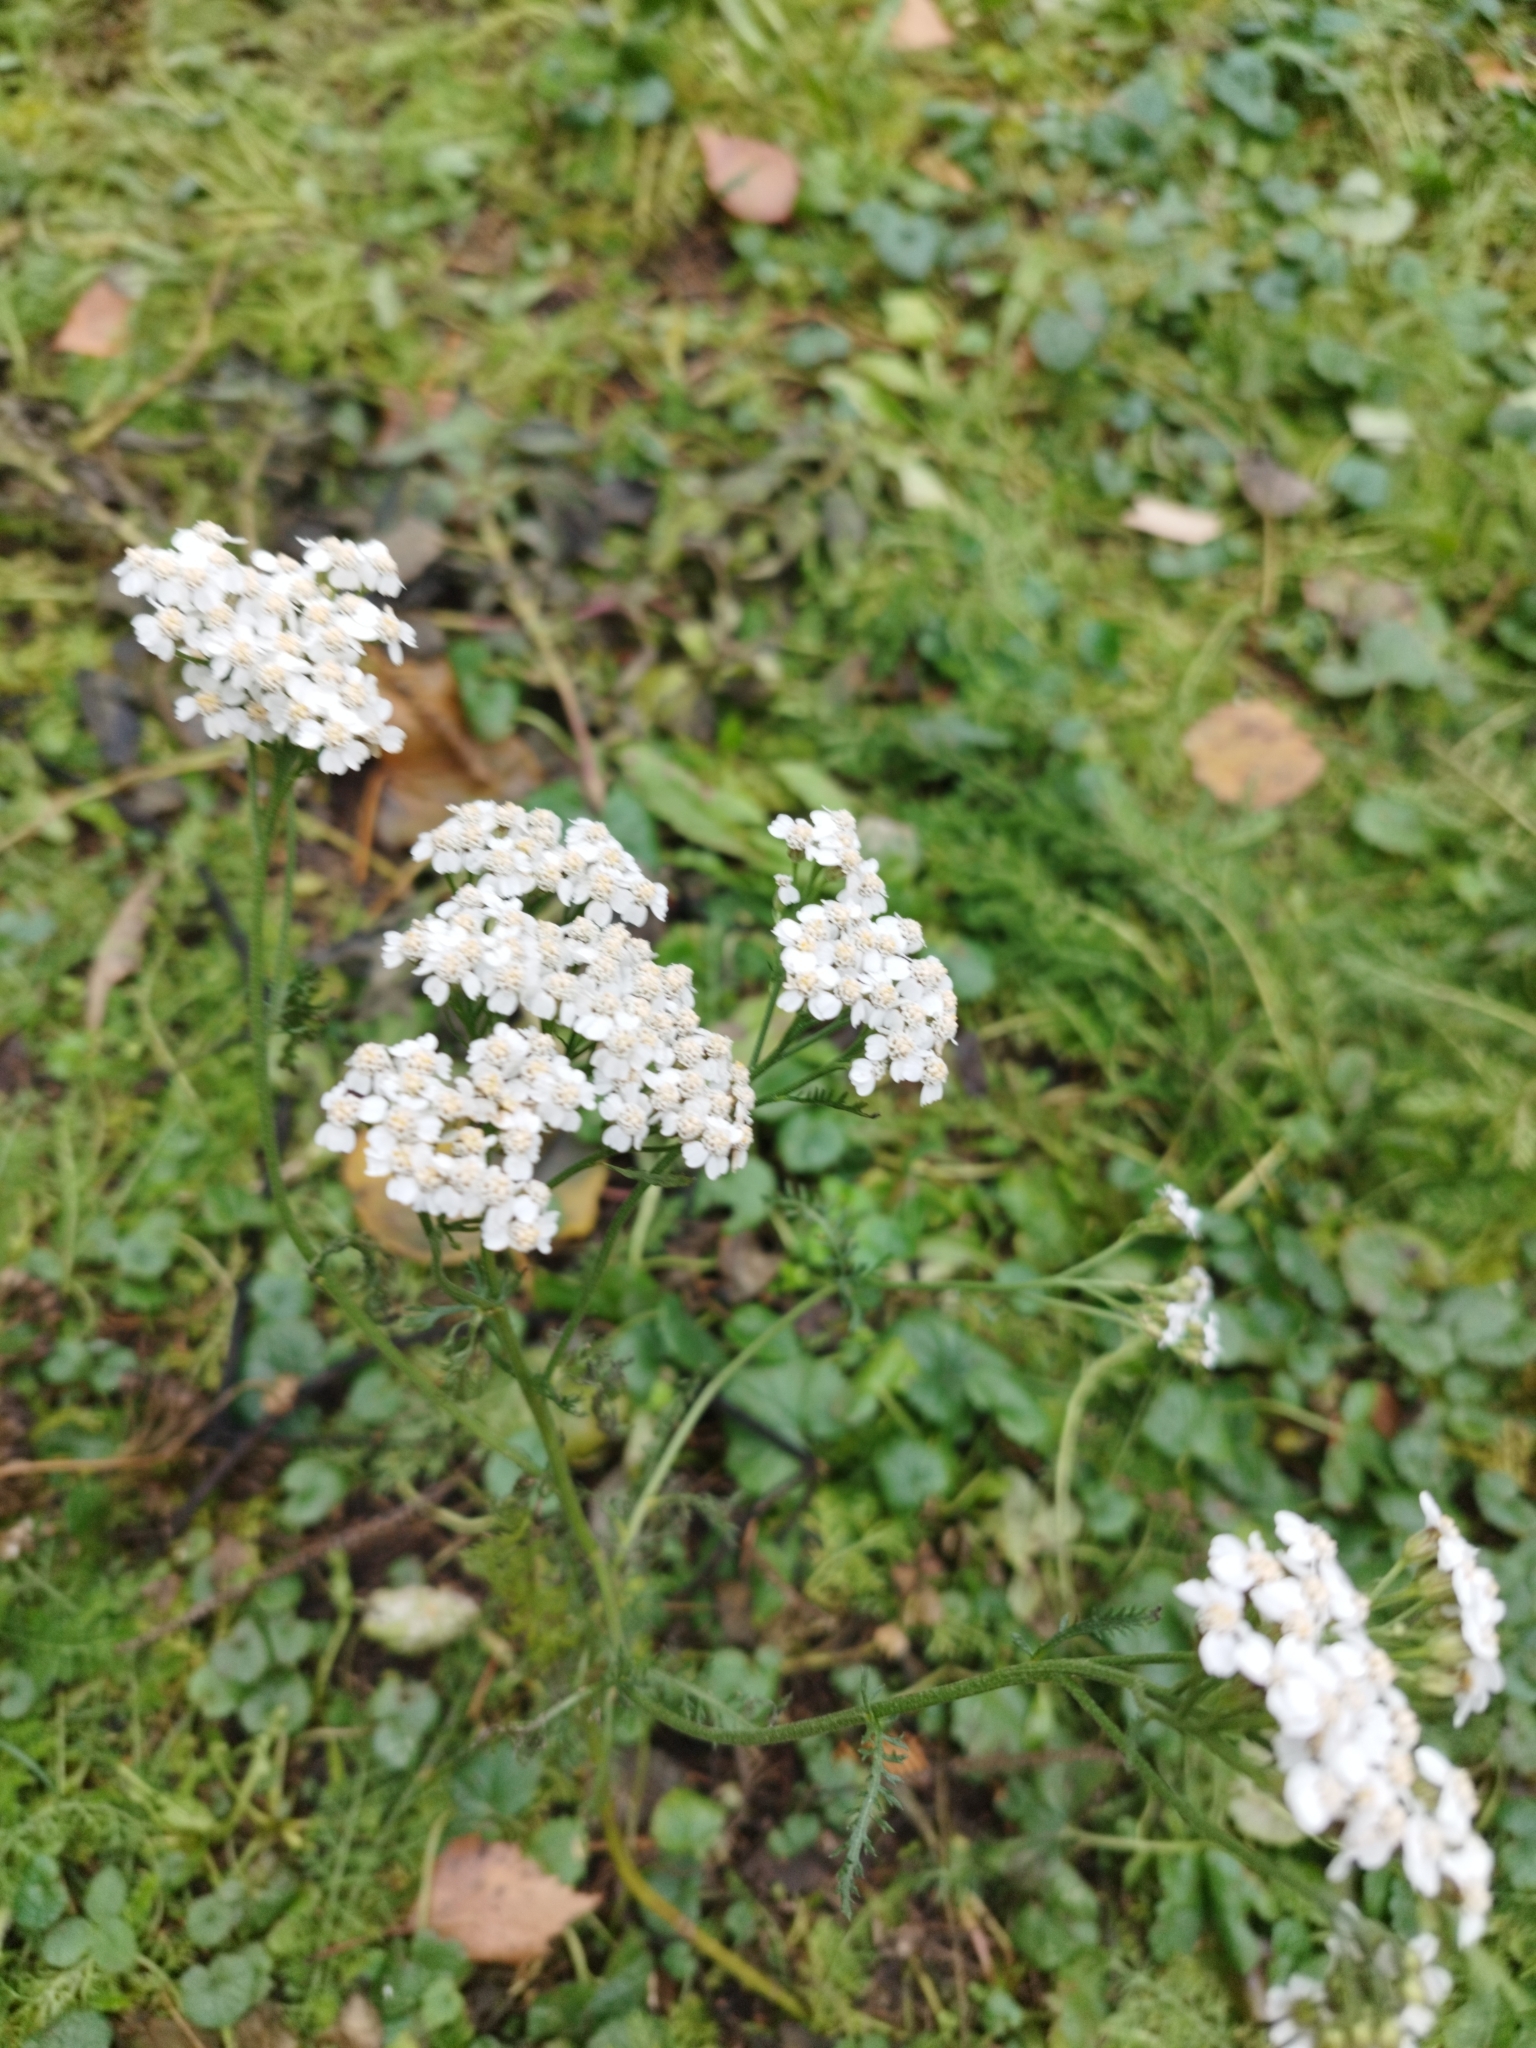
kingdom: Plantae
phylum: Tracheophyta
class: Magnoliopsida
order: Asterales
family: Asteraceae
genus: Achillea
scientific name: Achillea millefolium
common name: Yarrow
